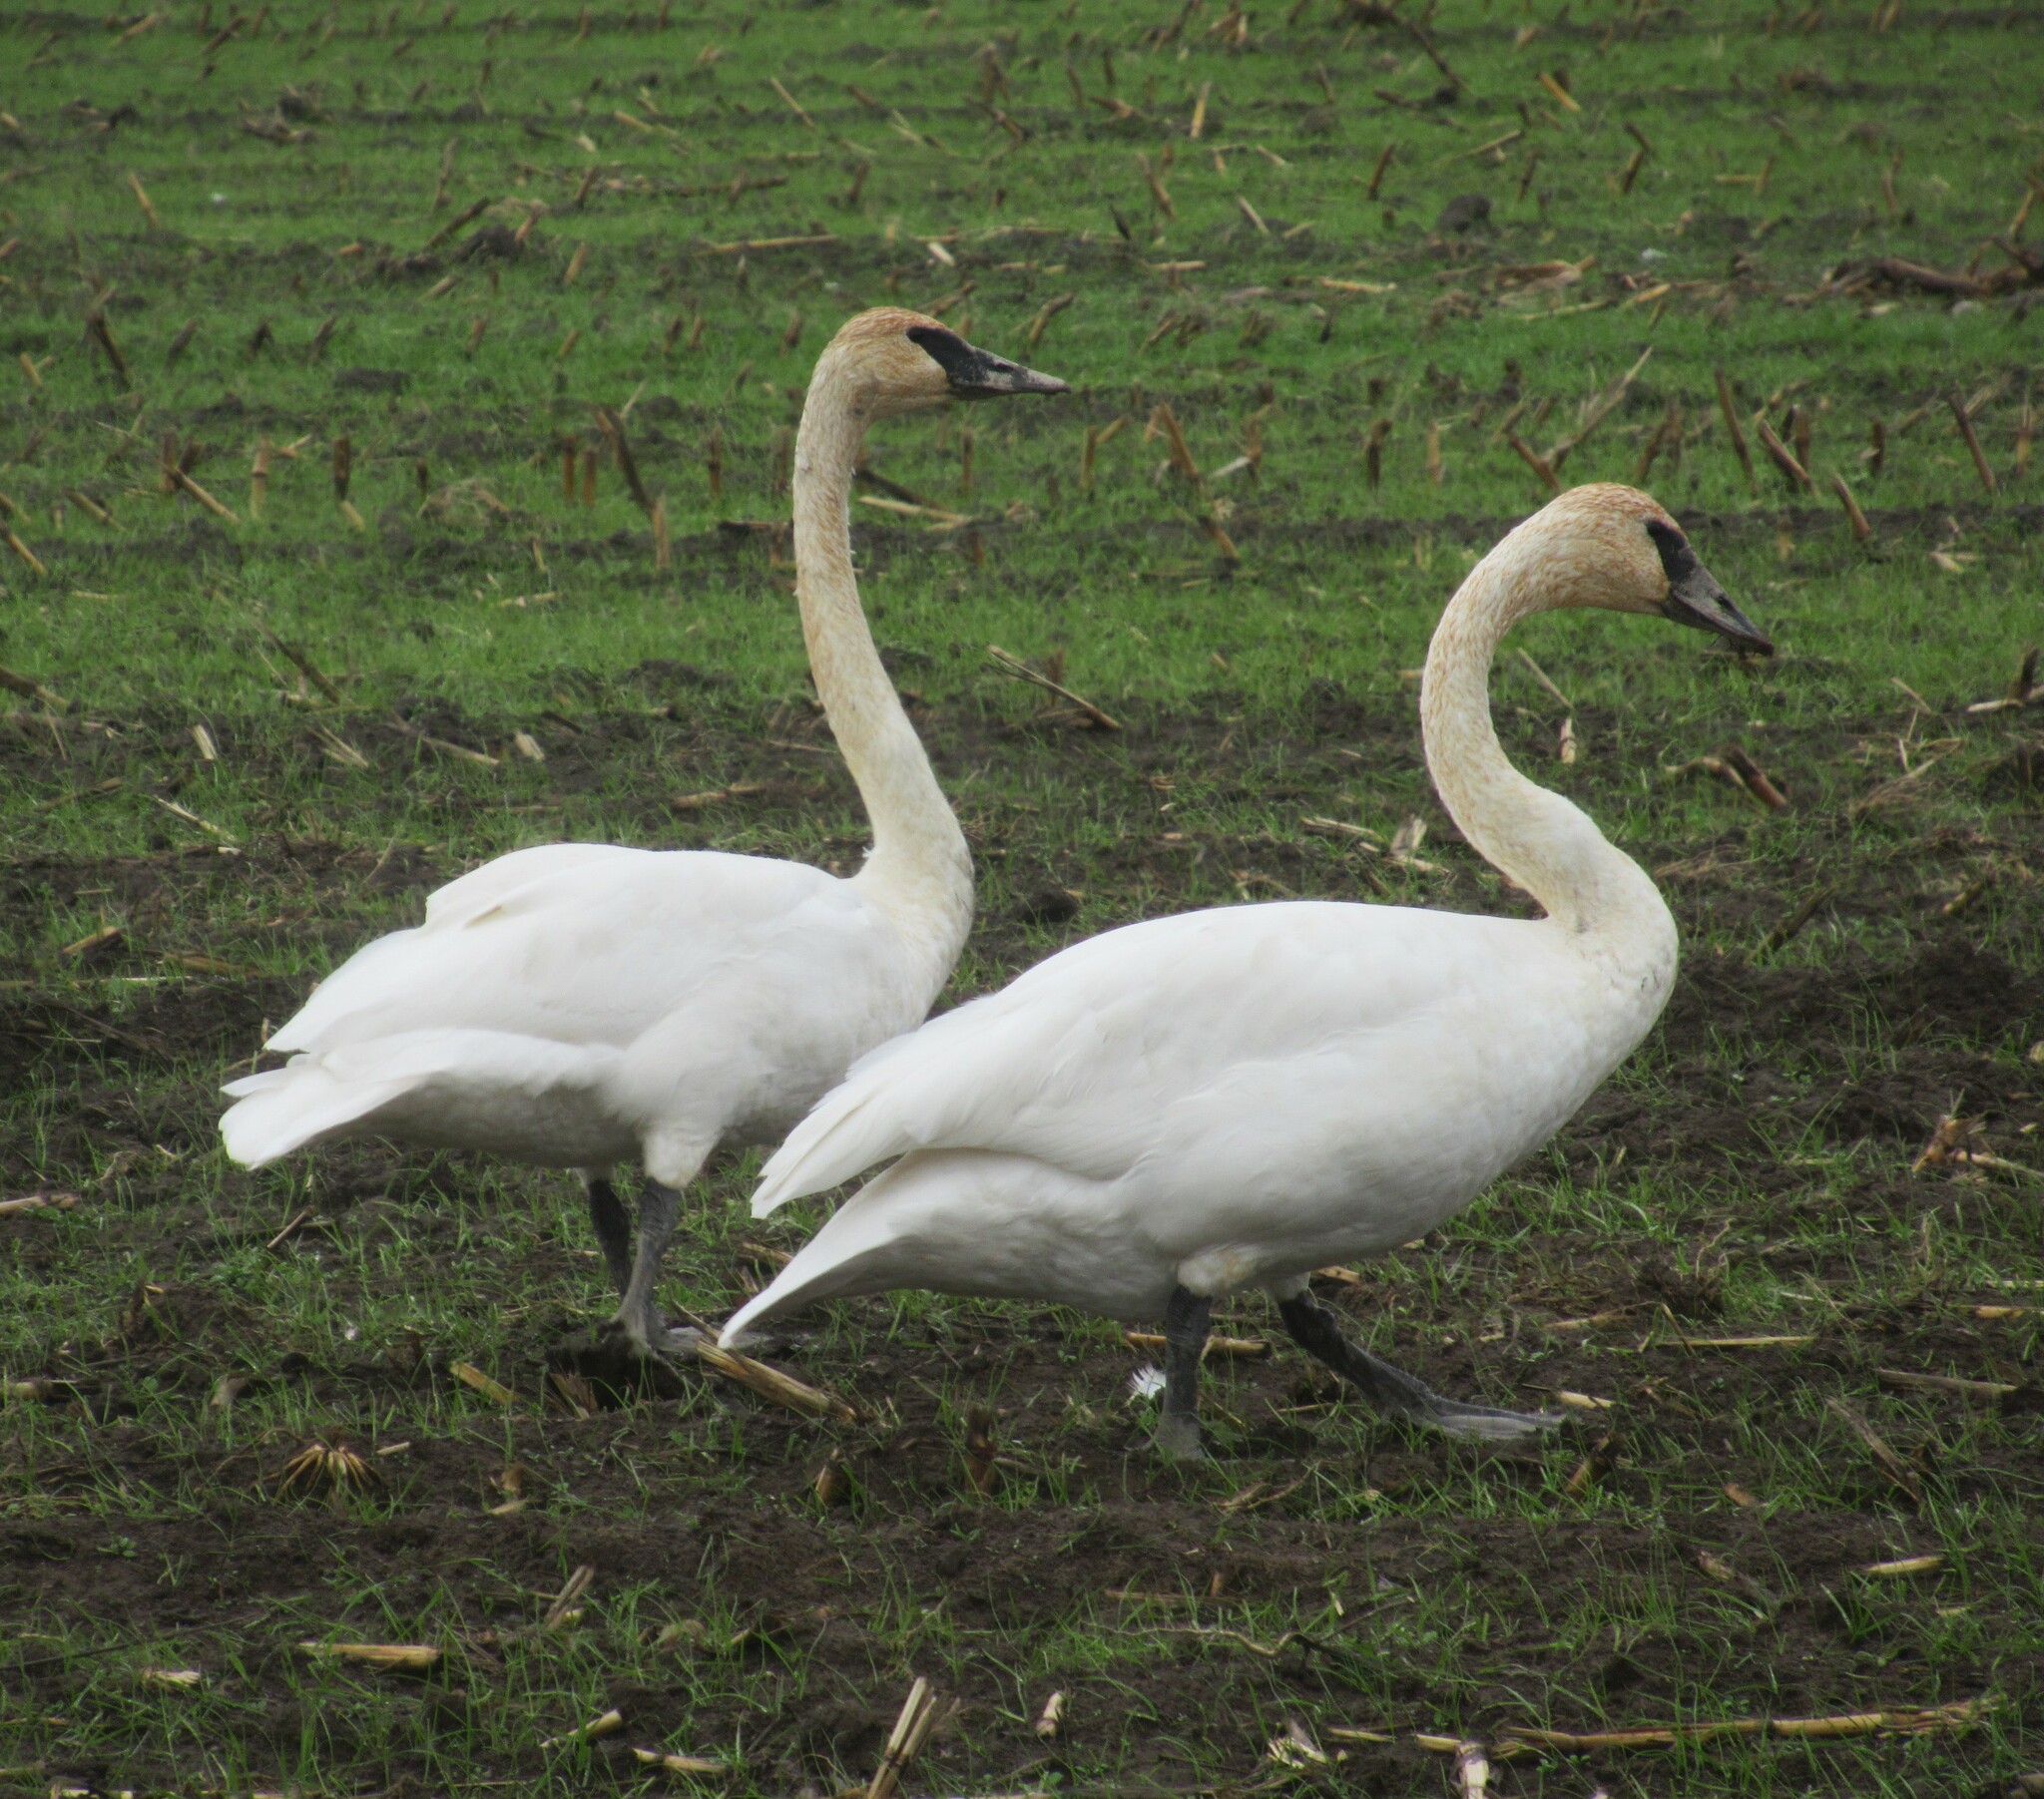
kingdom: Animalia
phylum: Chordata
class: Aves
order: Anseriformes
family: Anatidae
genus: Cygnus
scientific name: Cygnus buccinator
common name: Trumpeter swan
